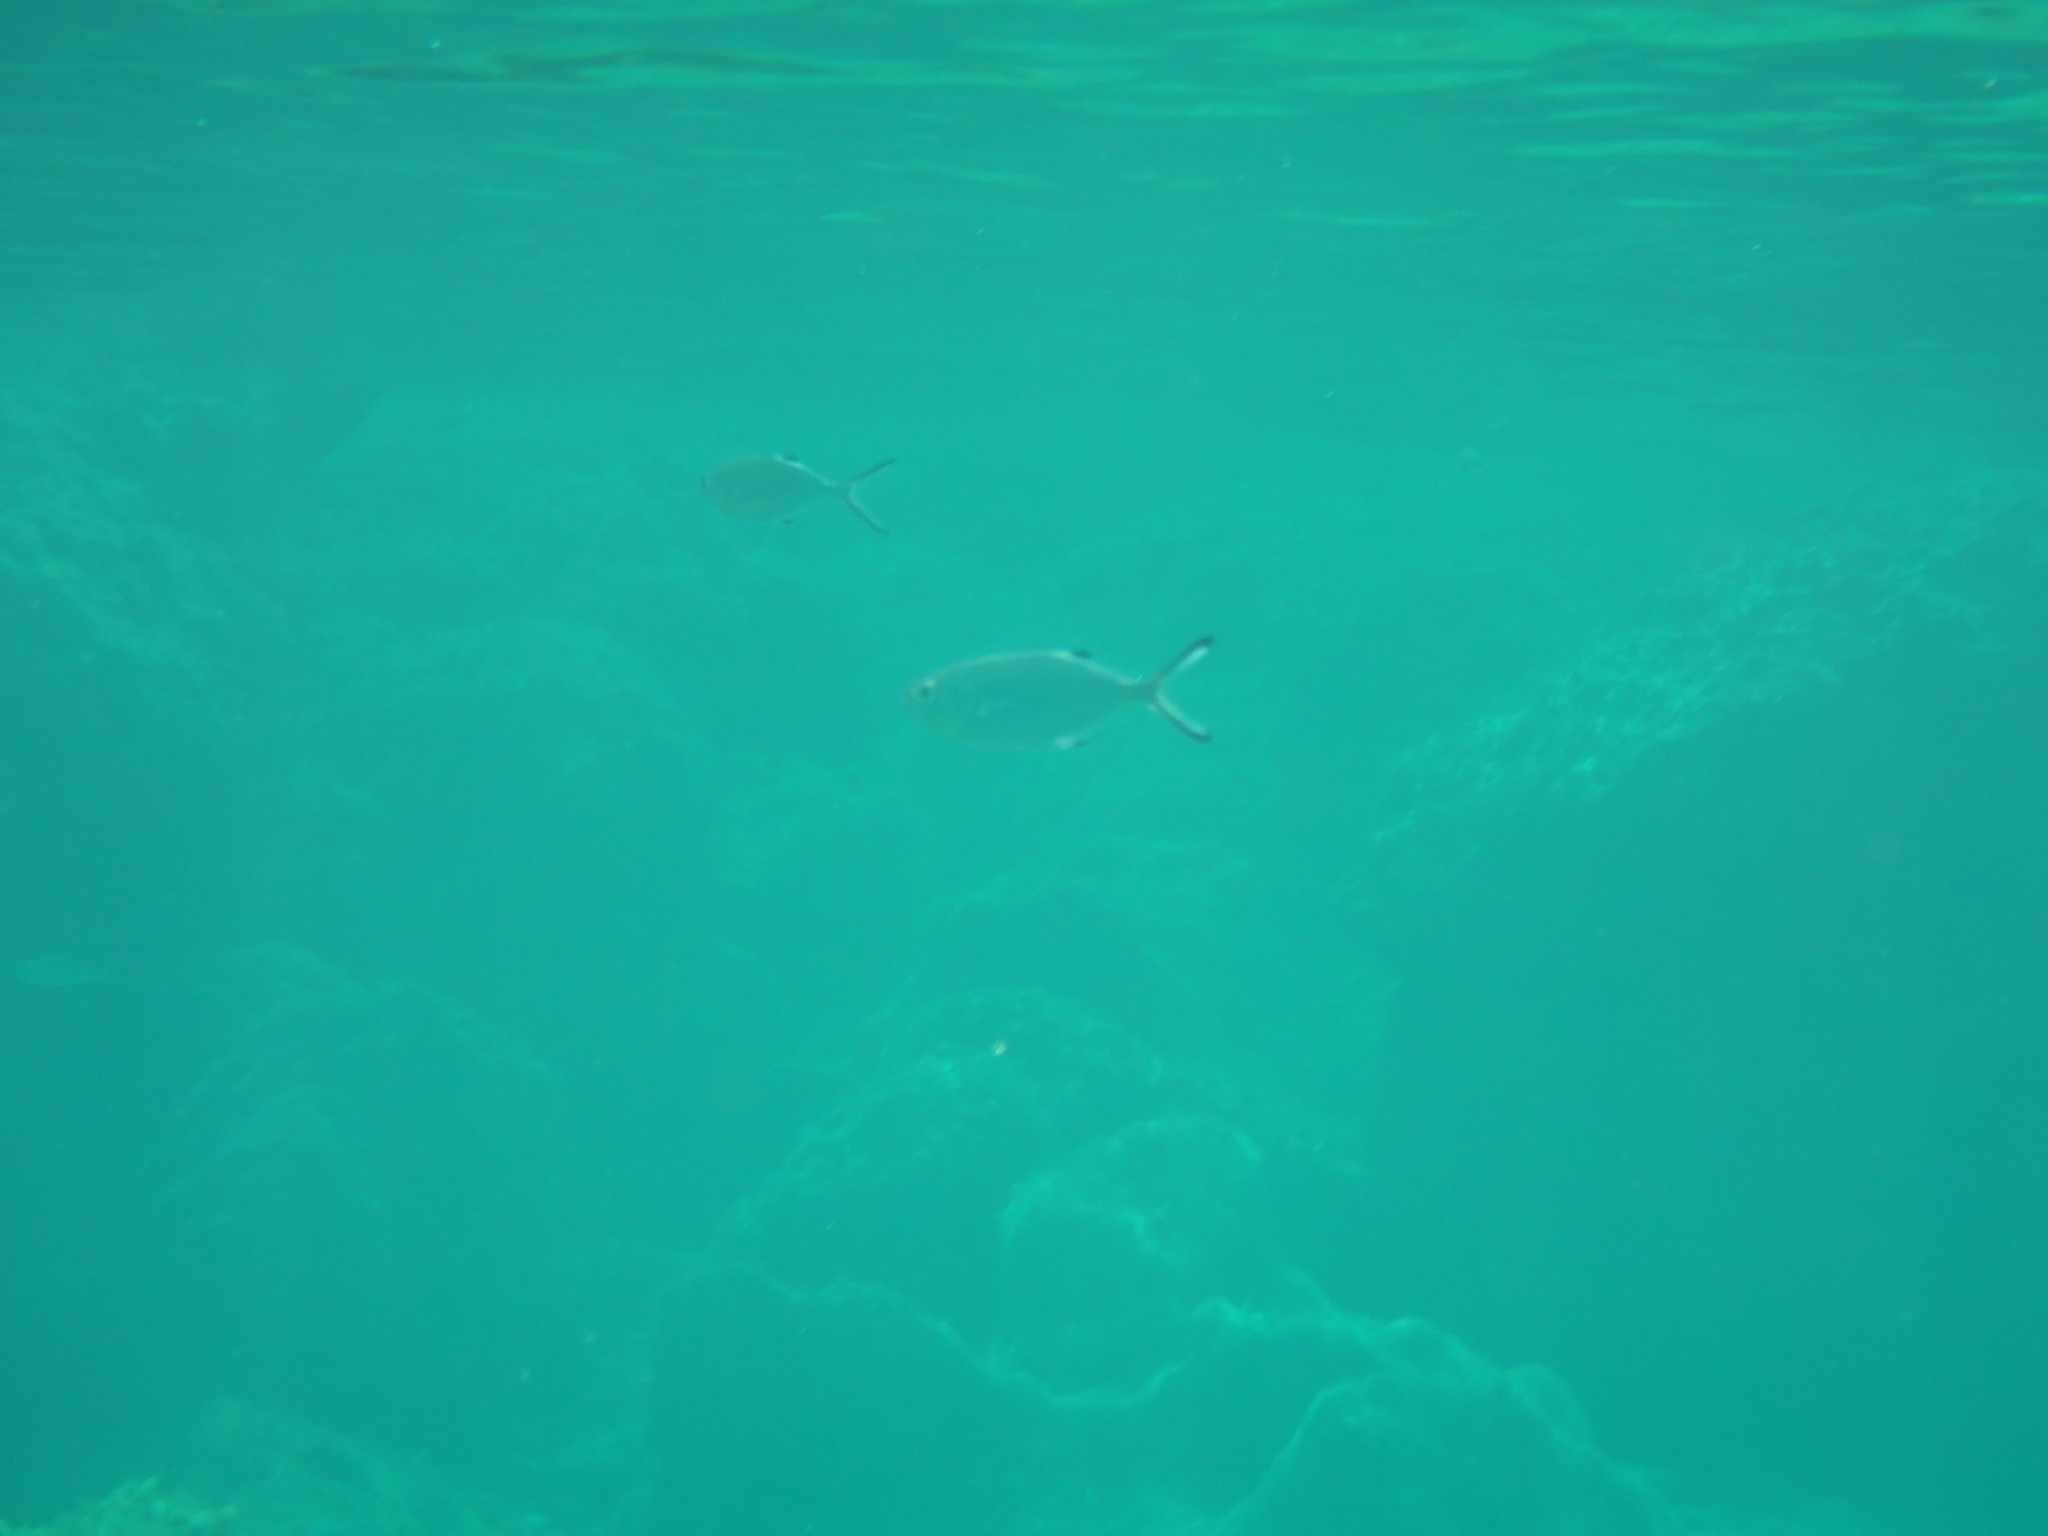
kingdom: Animalia
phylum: Chordata
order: Perciformes
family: Carangidae
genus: Trachinotus
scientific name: Trachinotus ovatus
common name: Pompano
